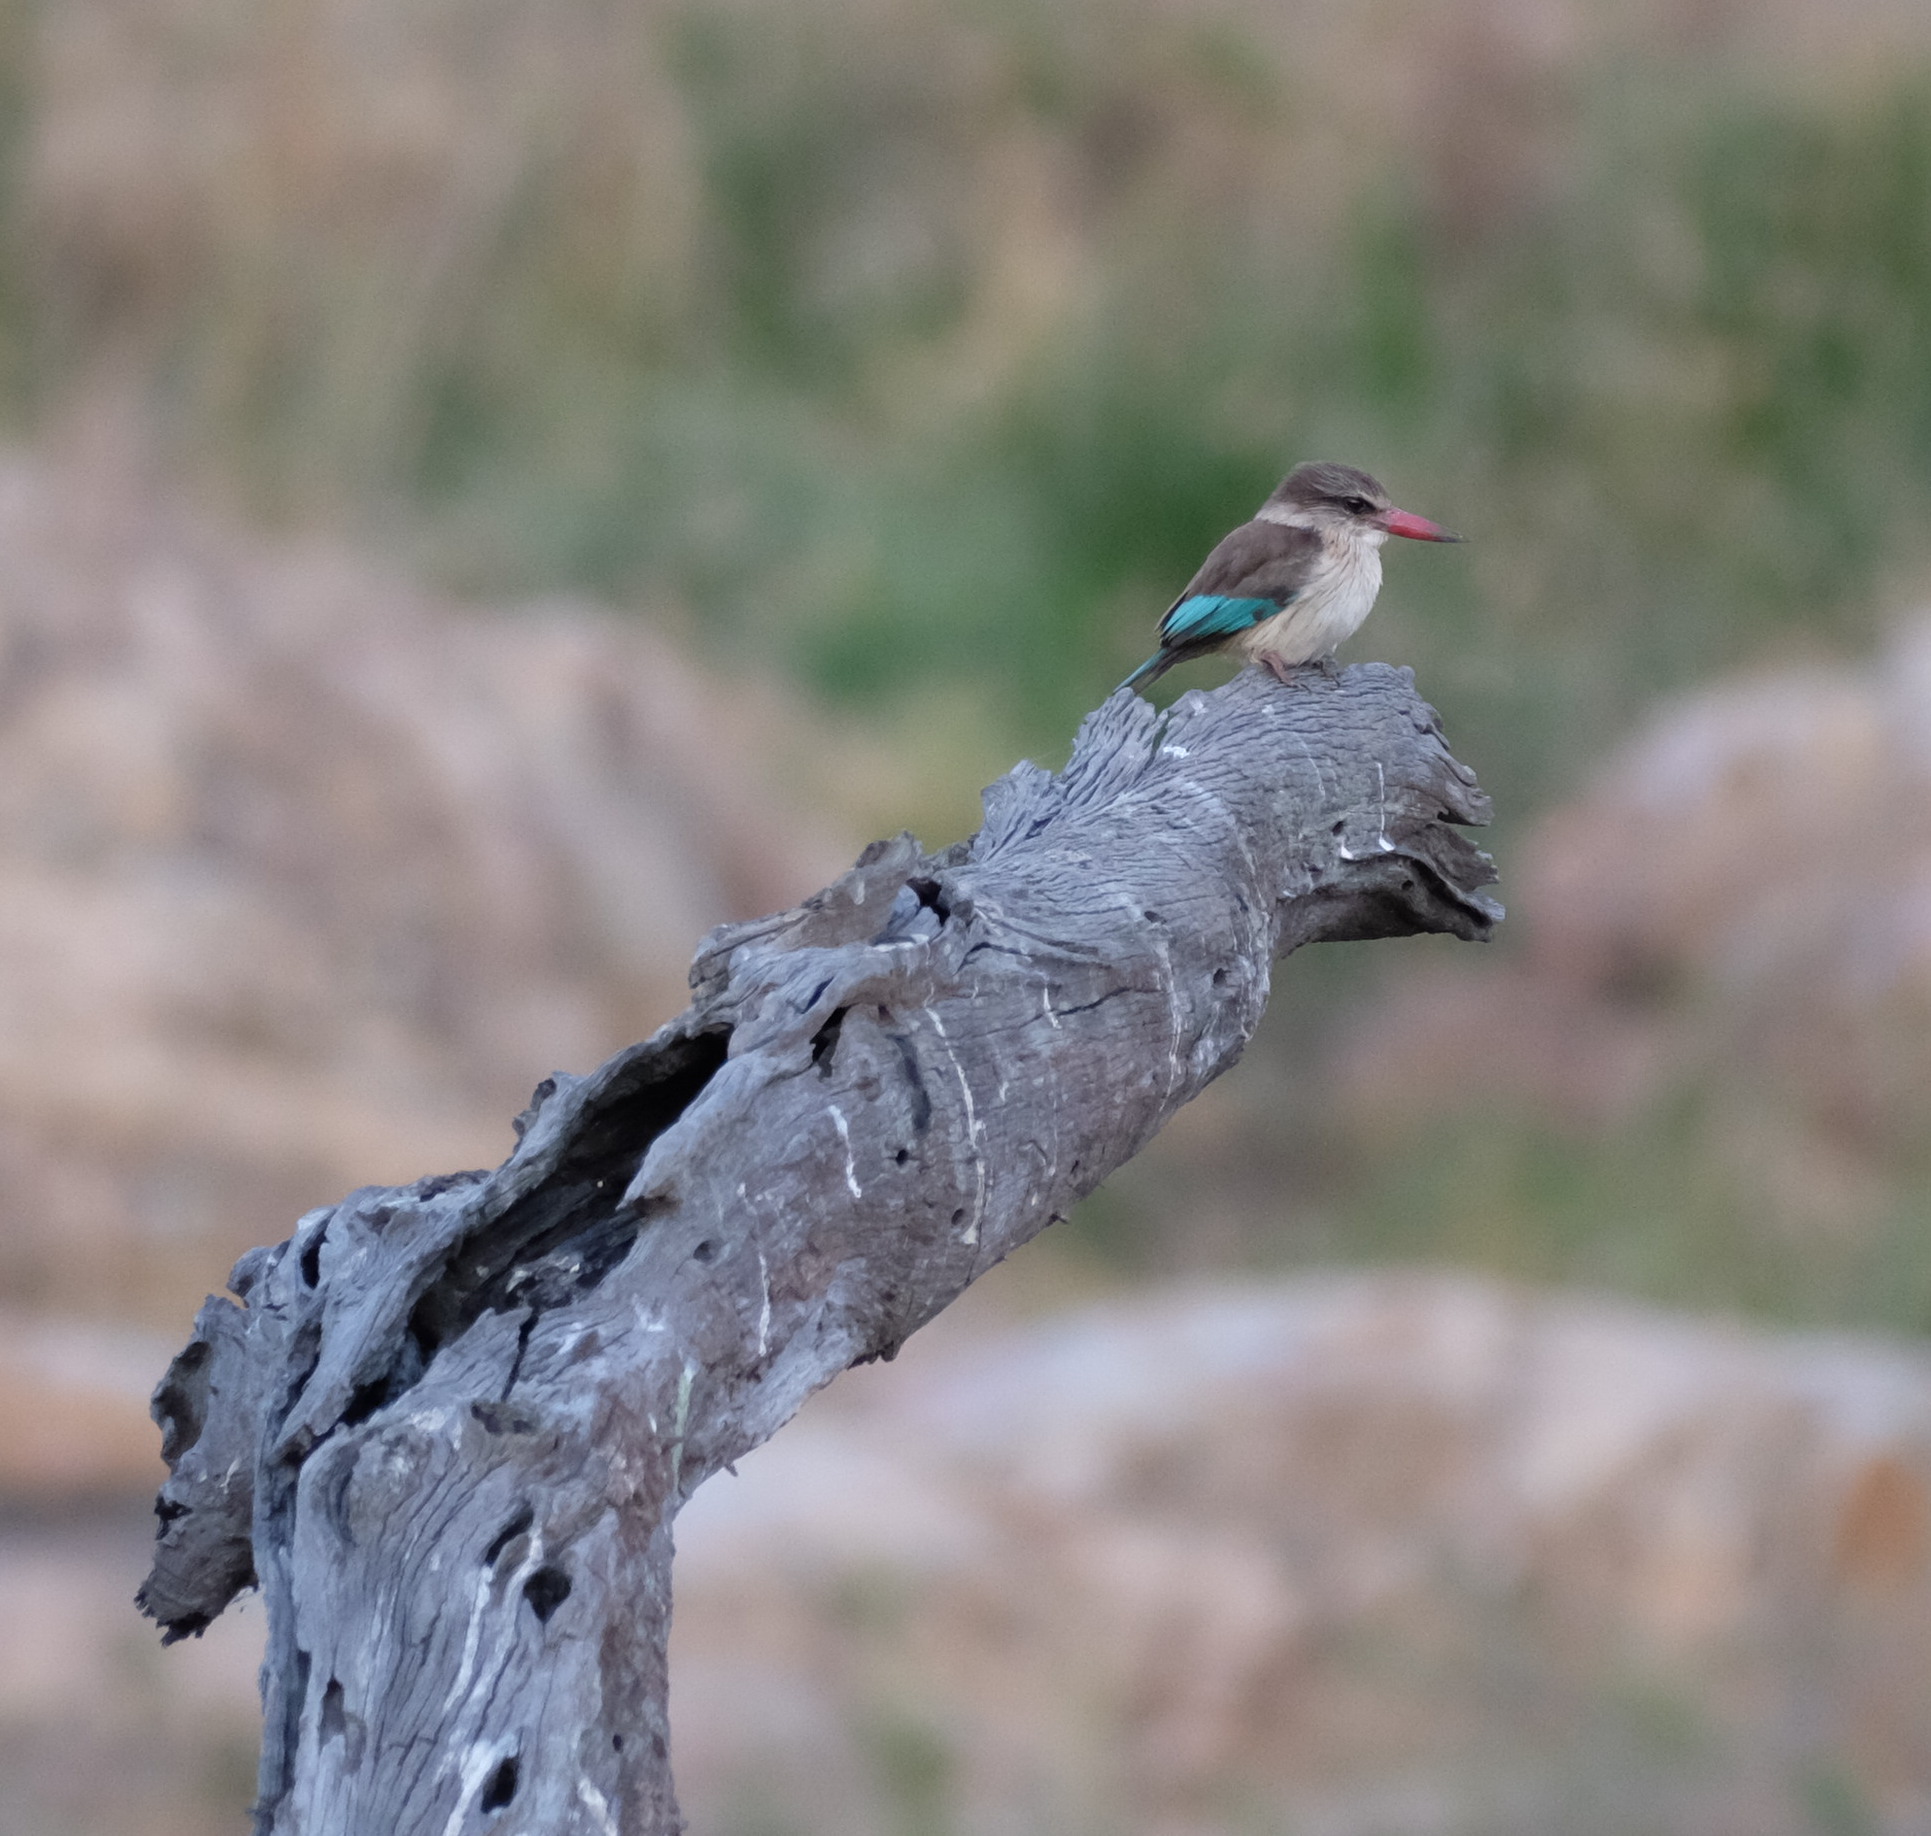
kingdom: Animalia
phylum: Chordata
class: Aves
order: Coraciiformes
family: Alcedinidae
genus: Halcyon
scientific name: Halcyon albiventris
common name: Brown-hooded kingfisher
